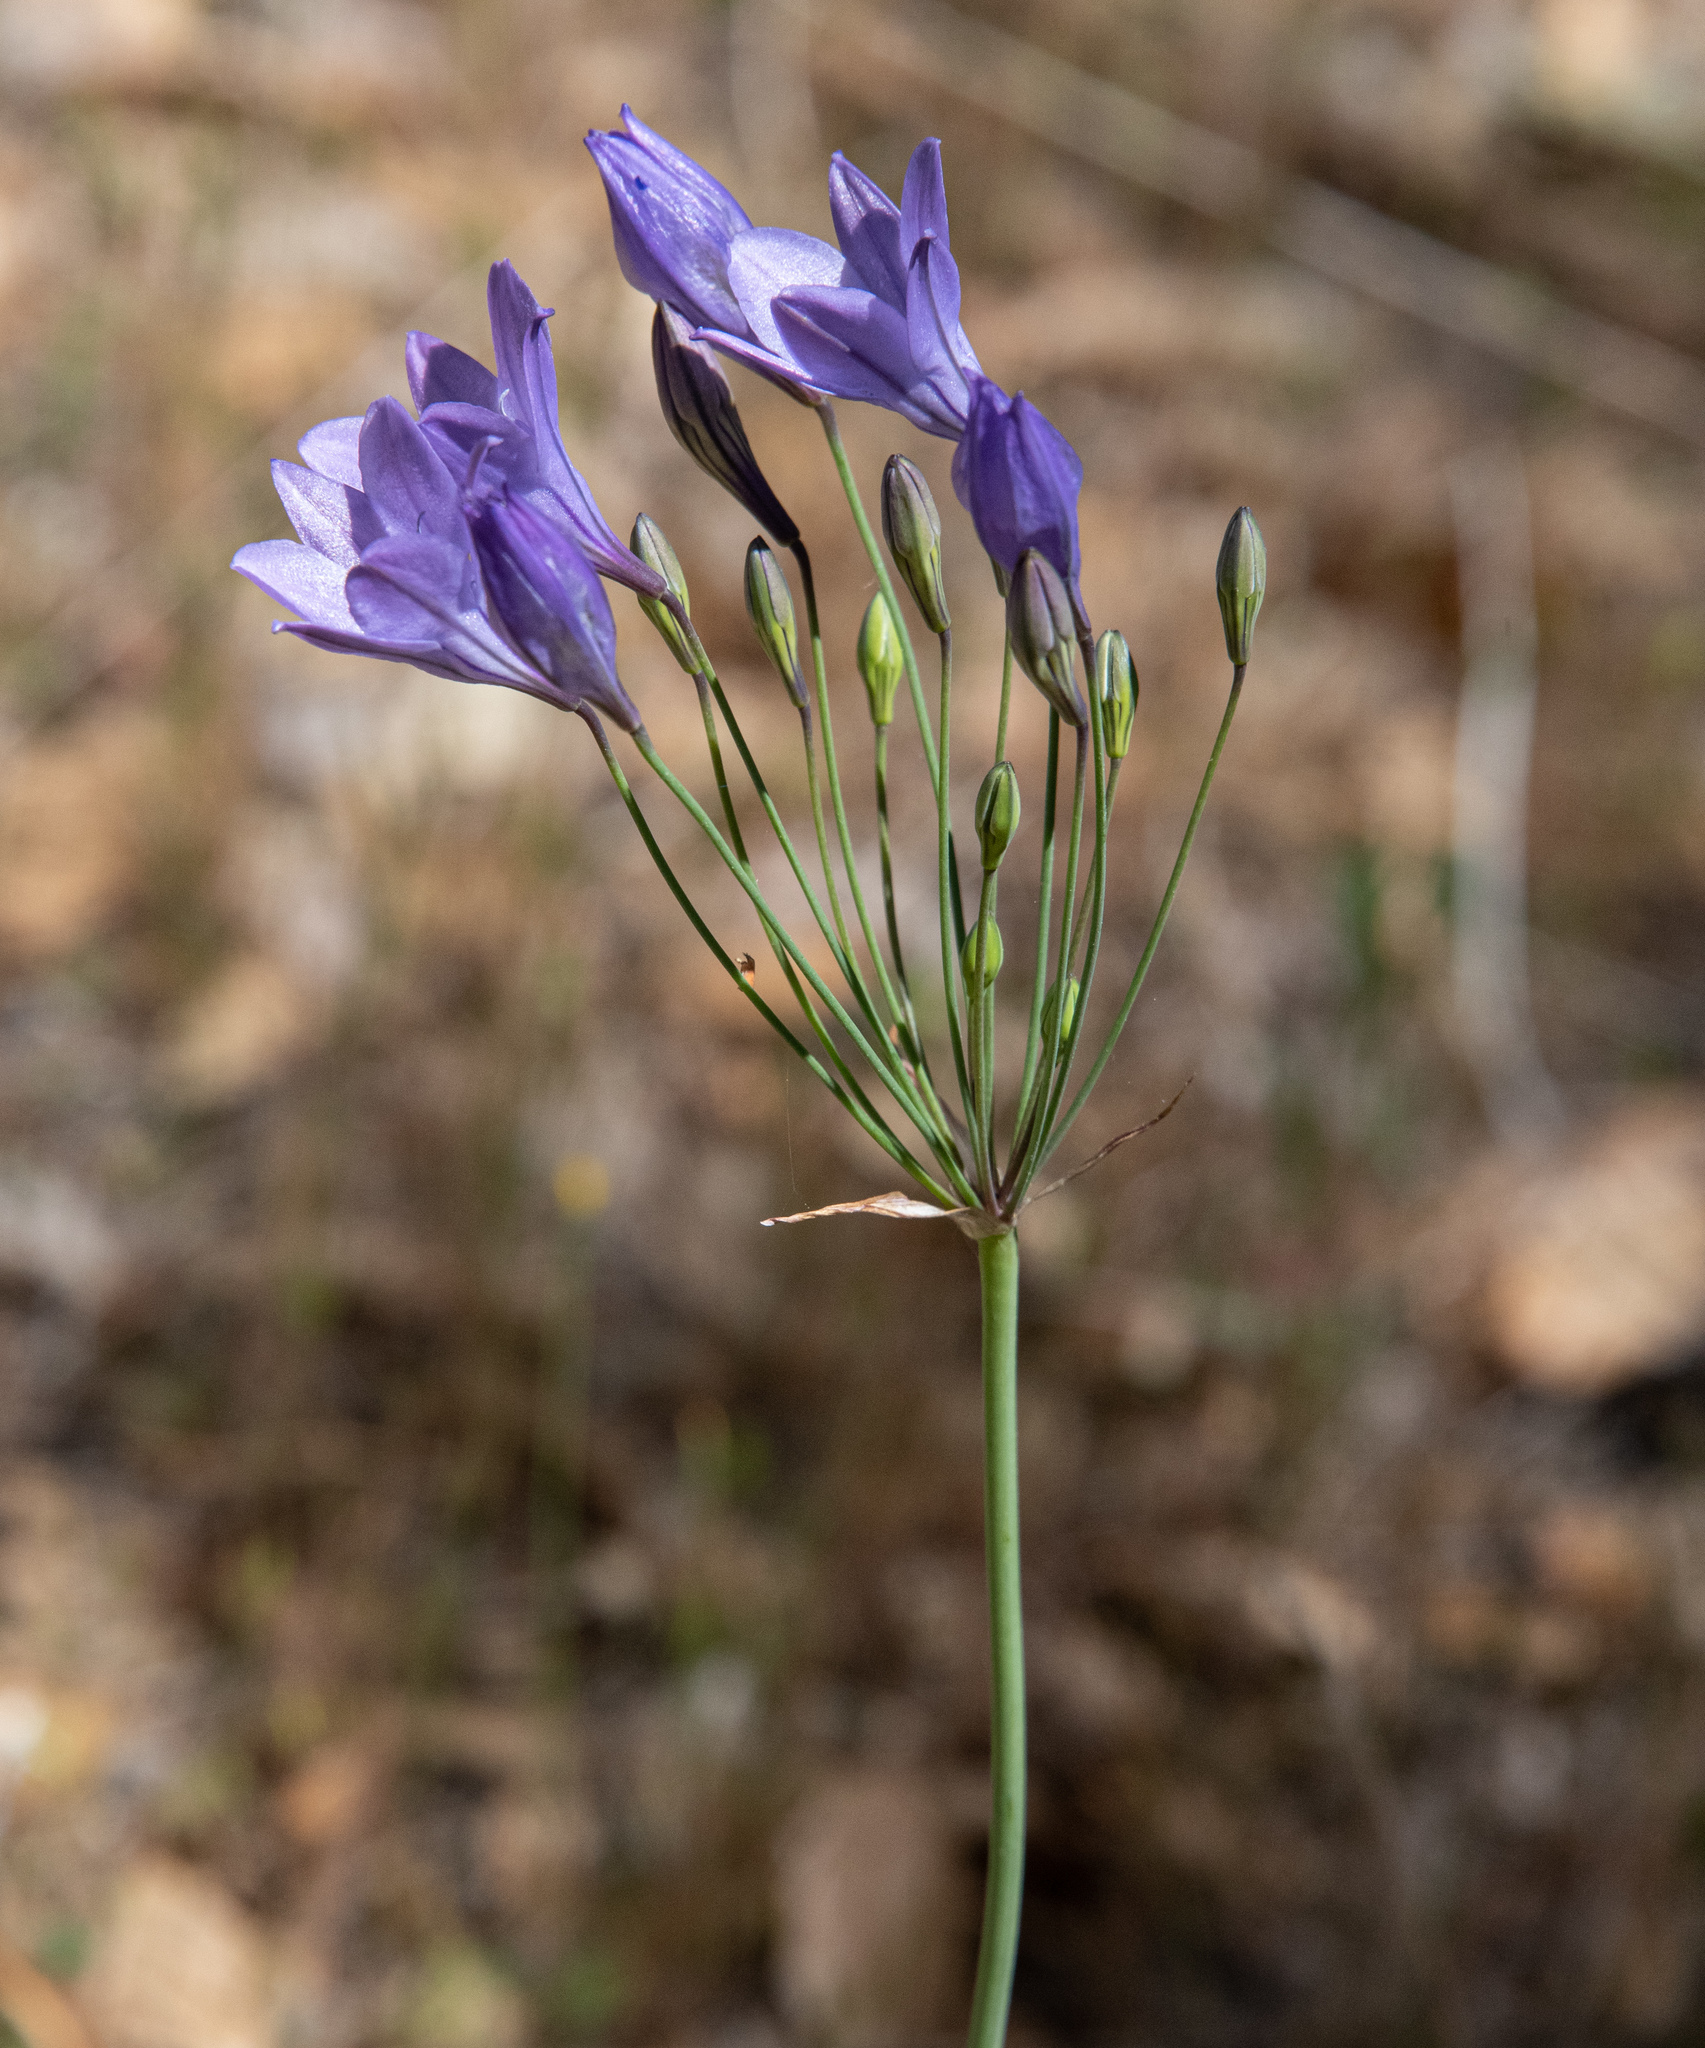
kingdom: Plantae
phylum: Tracheophyta
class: Liliopsida
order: Asparagales
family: Asparagaceae
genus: Triteleia
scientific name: Triteleia laxa
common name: Triplet-lily
